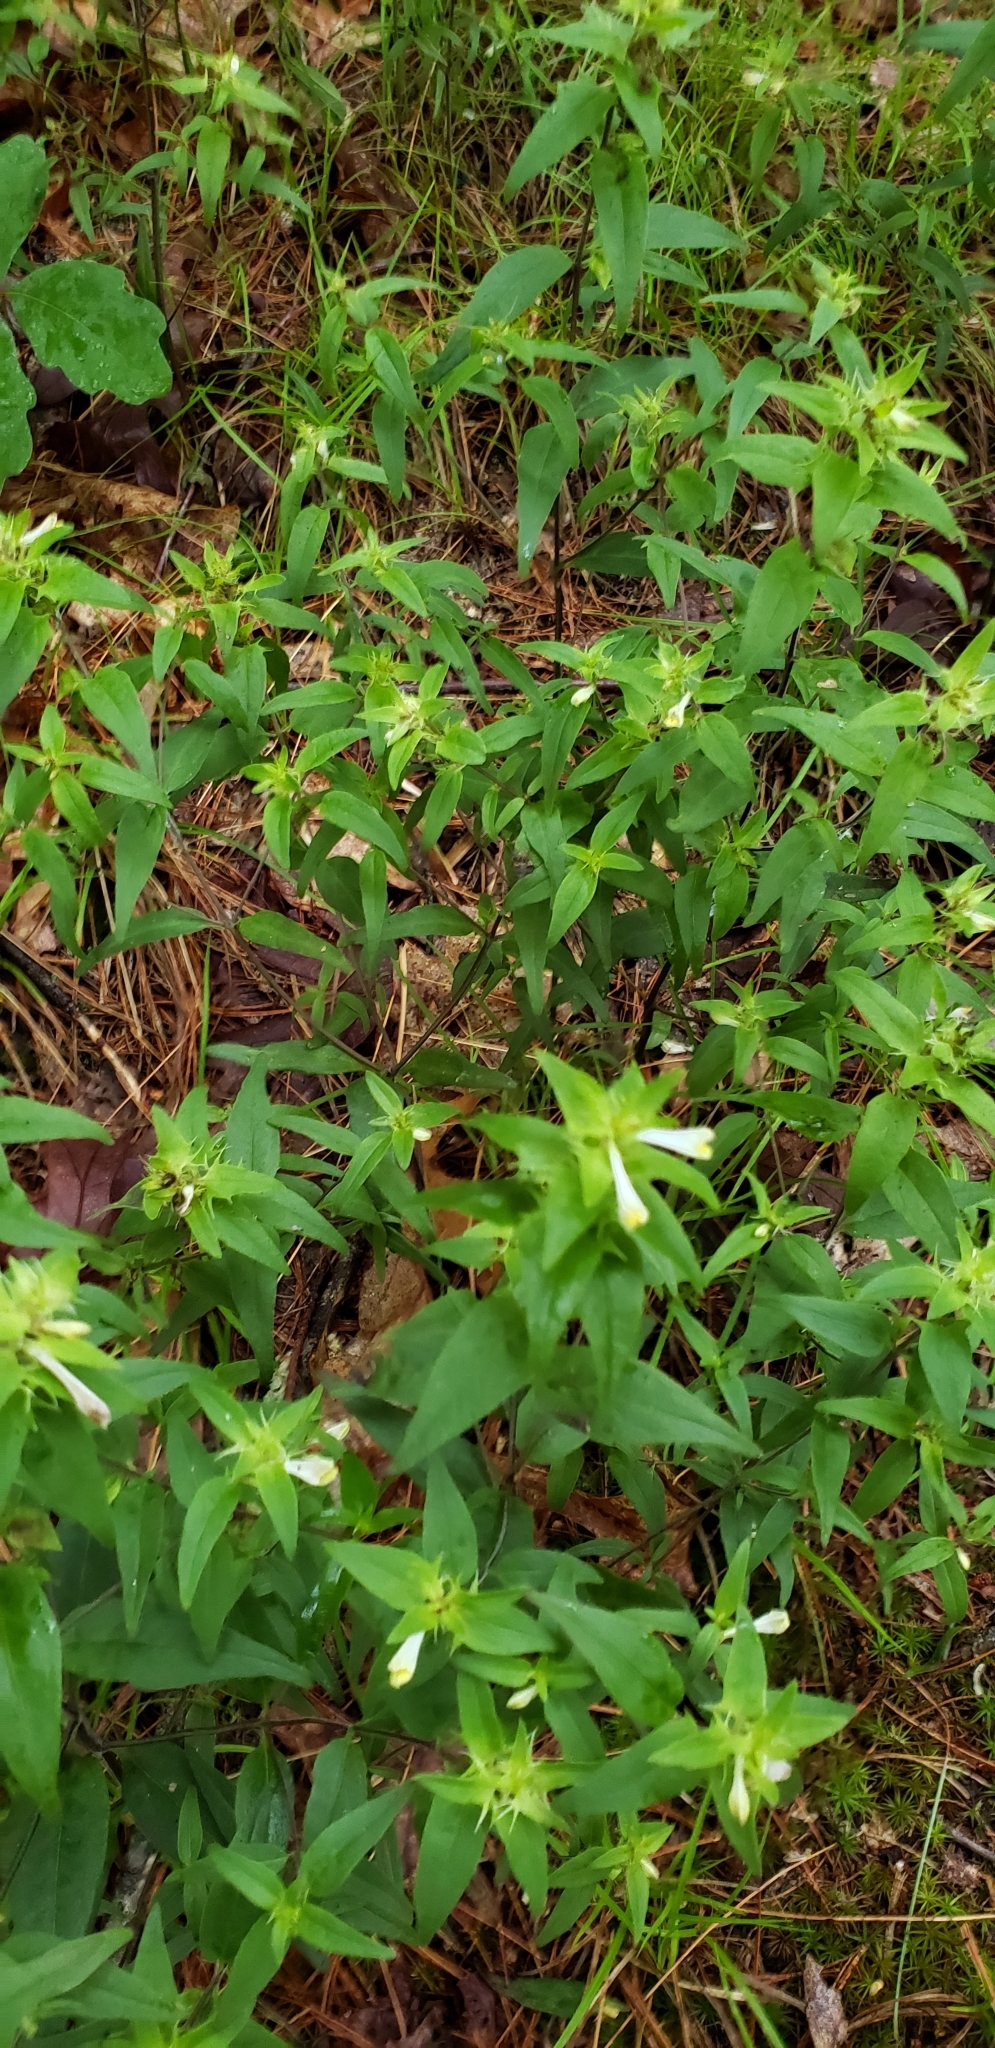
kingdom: Plantae
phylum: Tracheophyta
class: Magnoliopsida
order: Lamiales
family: Orobanchaceae
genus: Melampyrum
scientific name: Melampyrum lineare
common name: American cow-wheat
